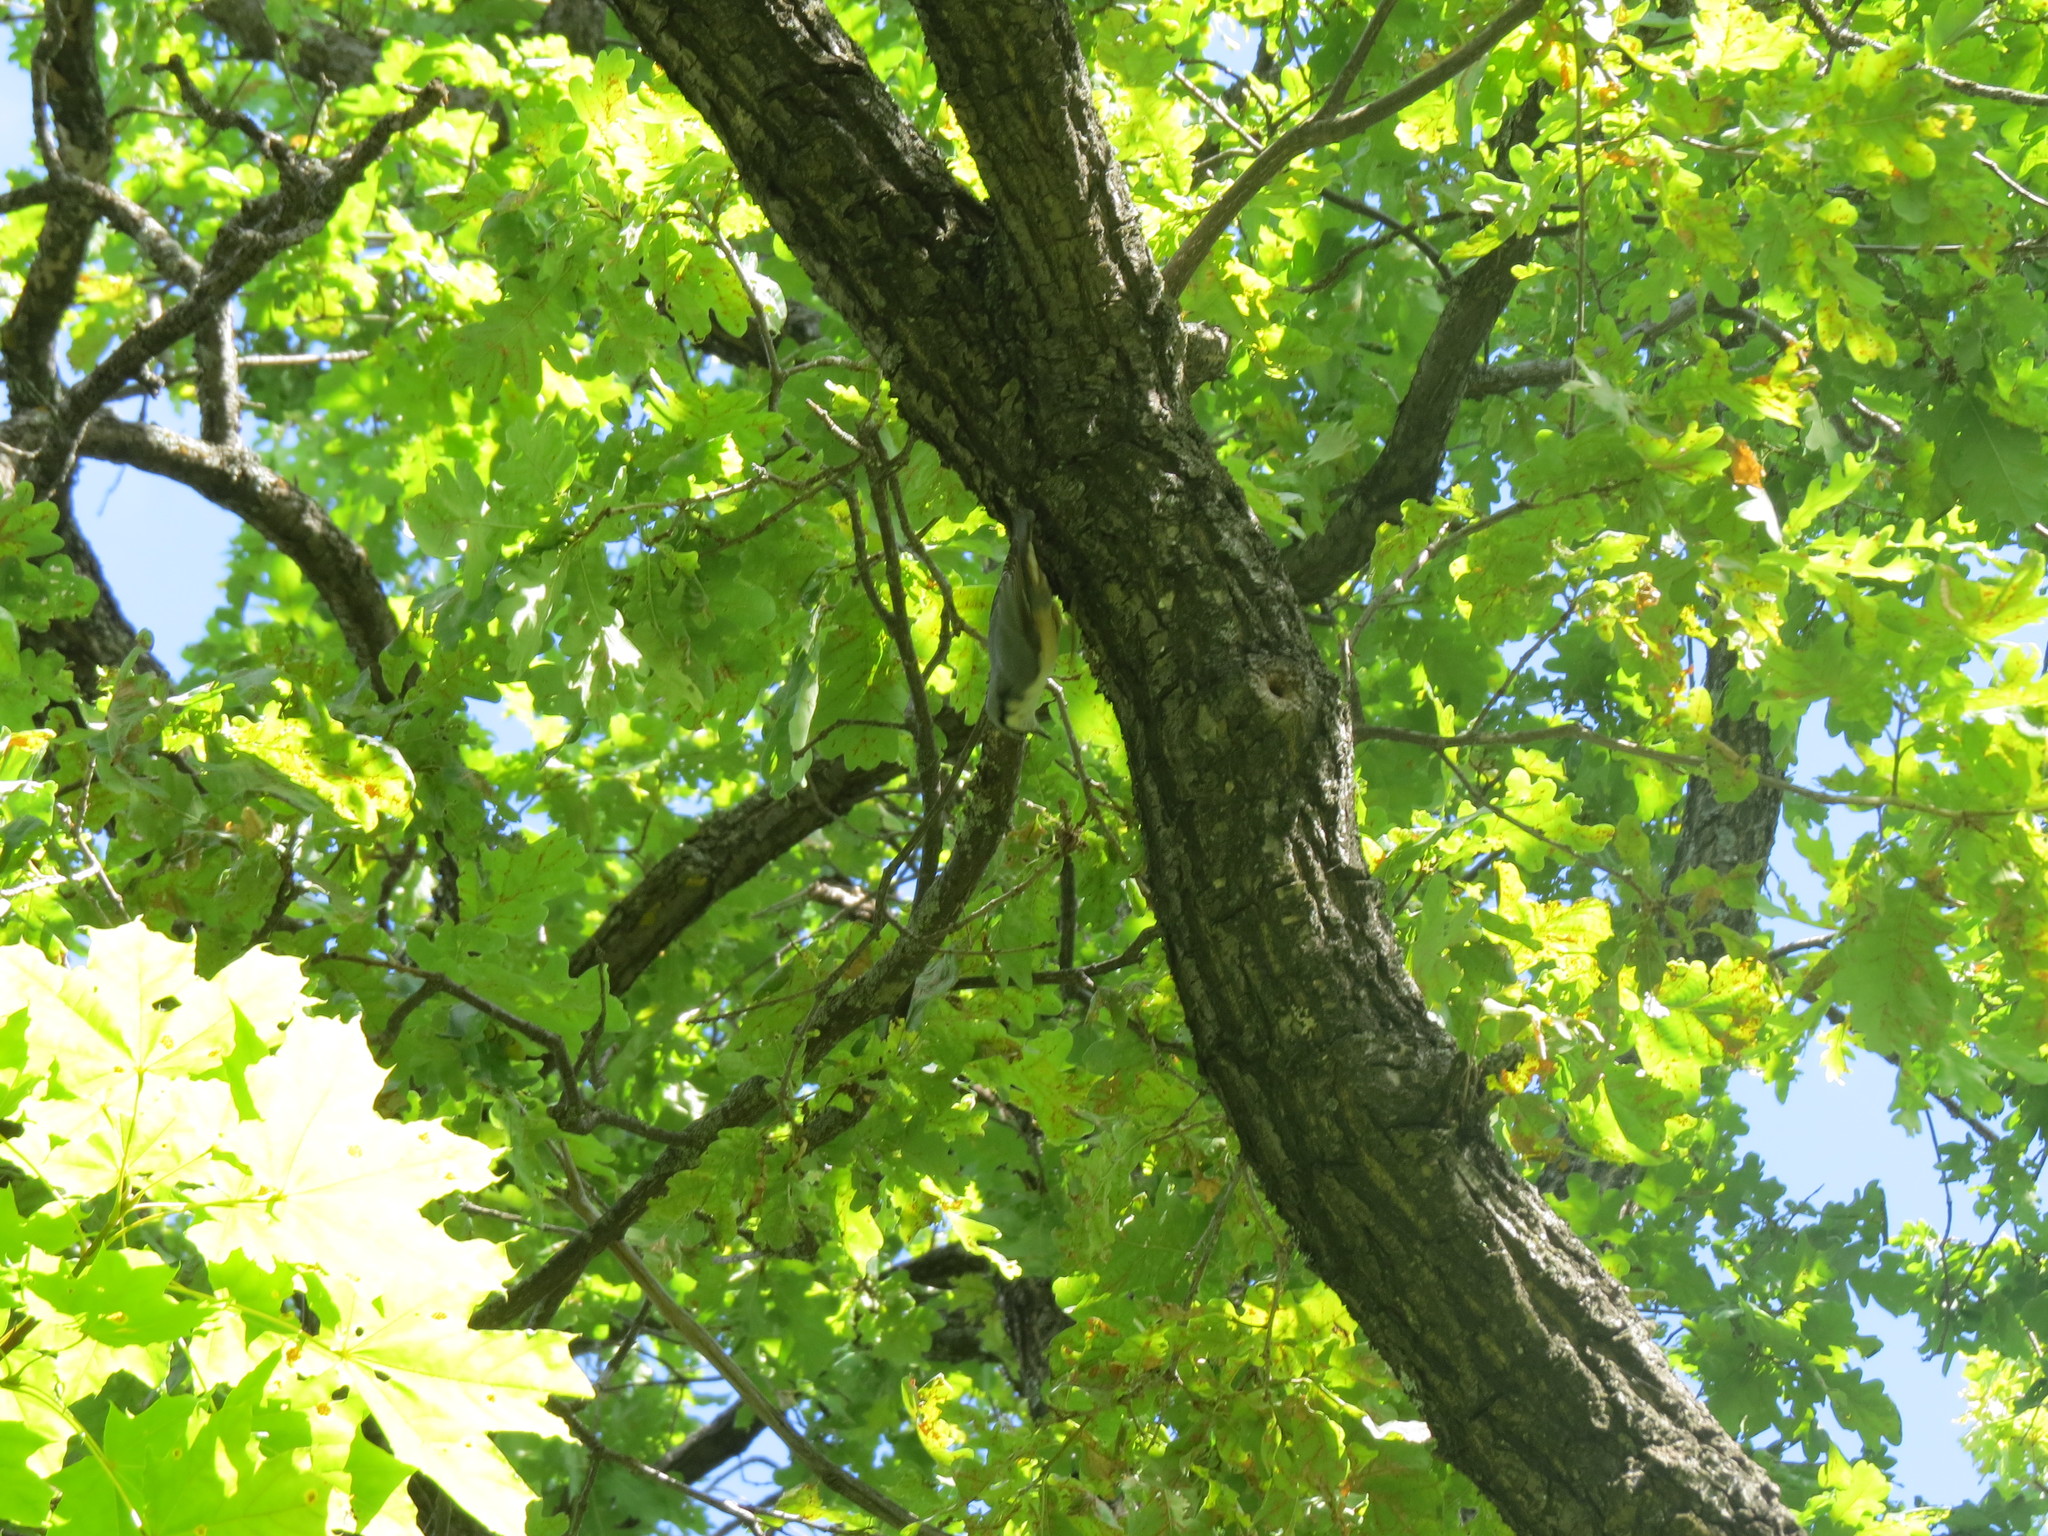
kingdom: Animalia
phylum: Chordata
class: Aves
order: Passeriformes
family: Sittidae
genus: Sitta
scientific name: Sitta europaea
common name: Eurasian nuthatch
